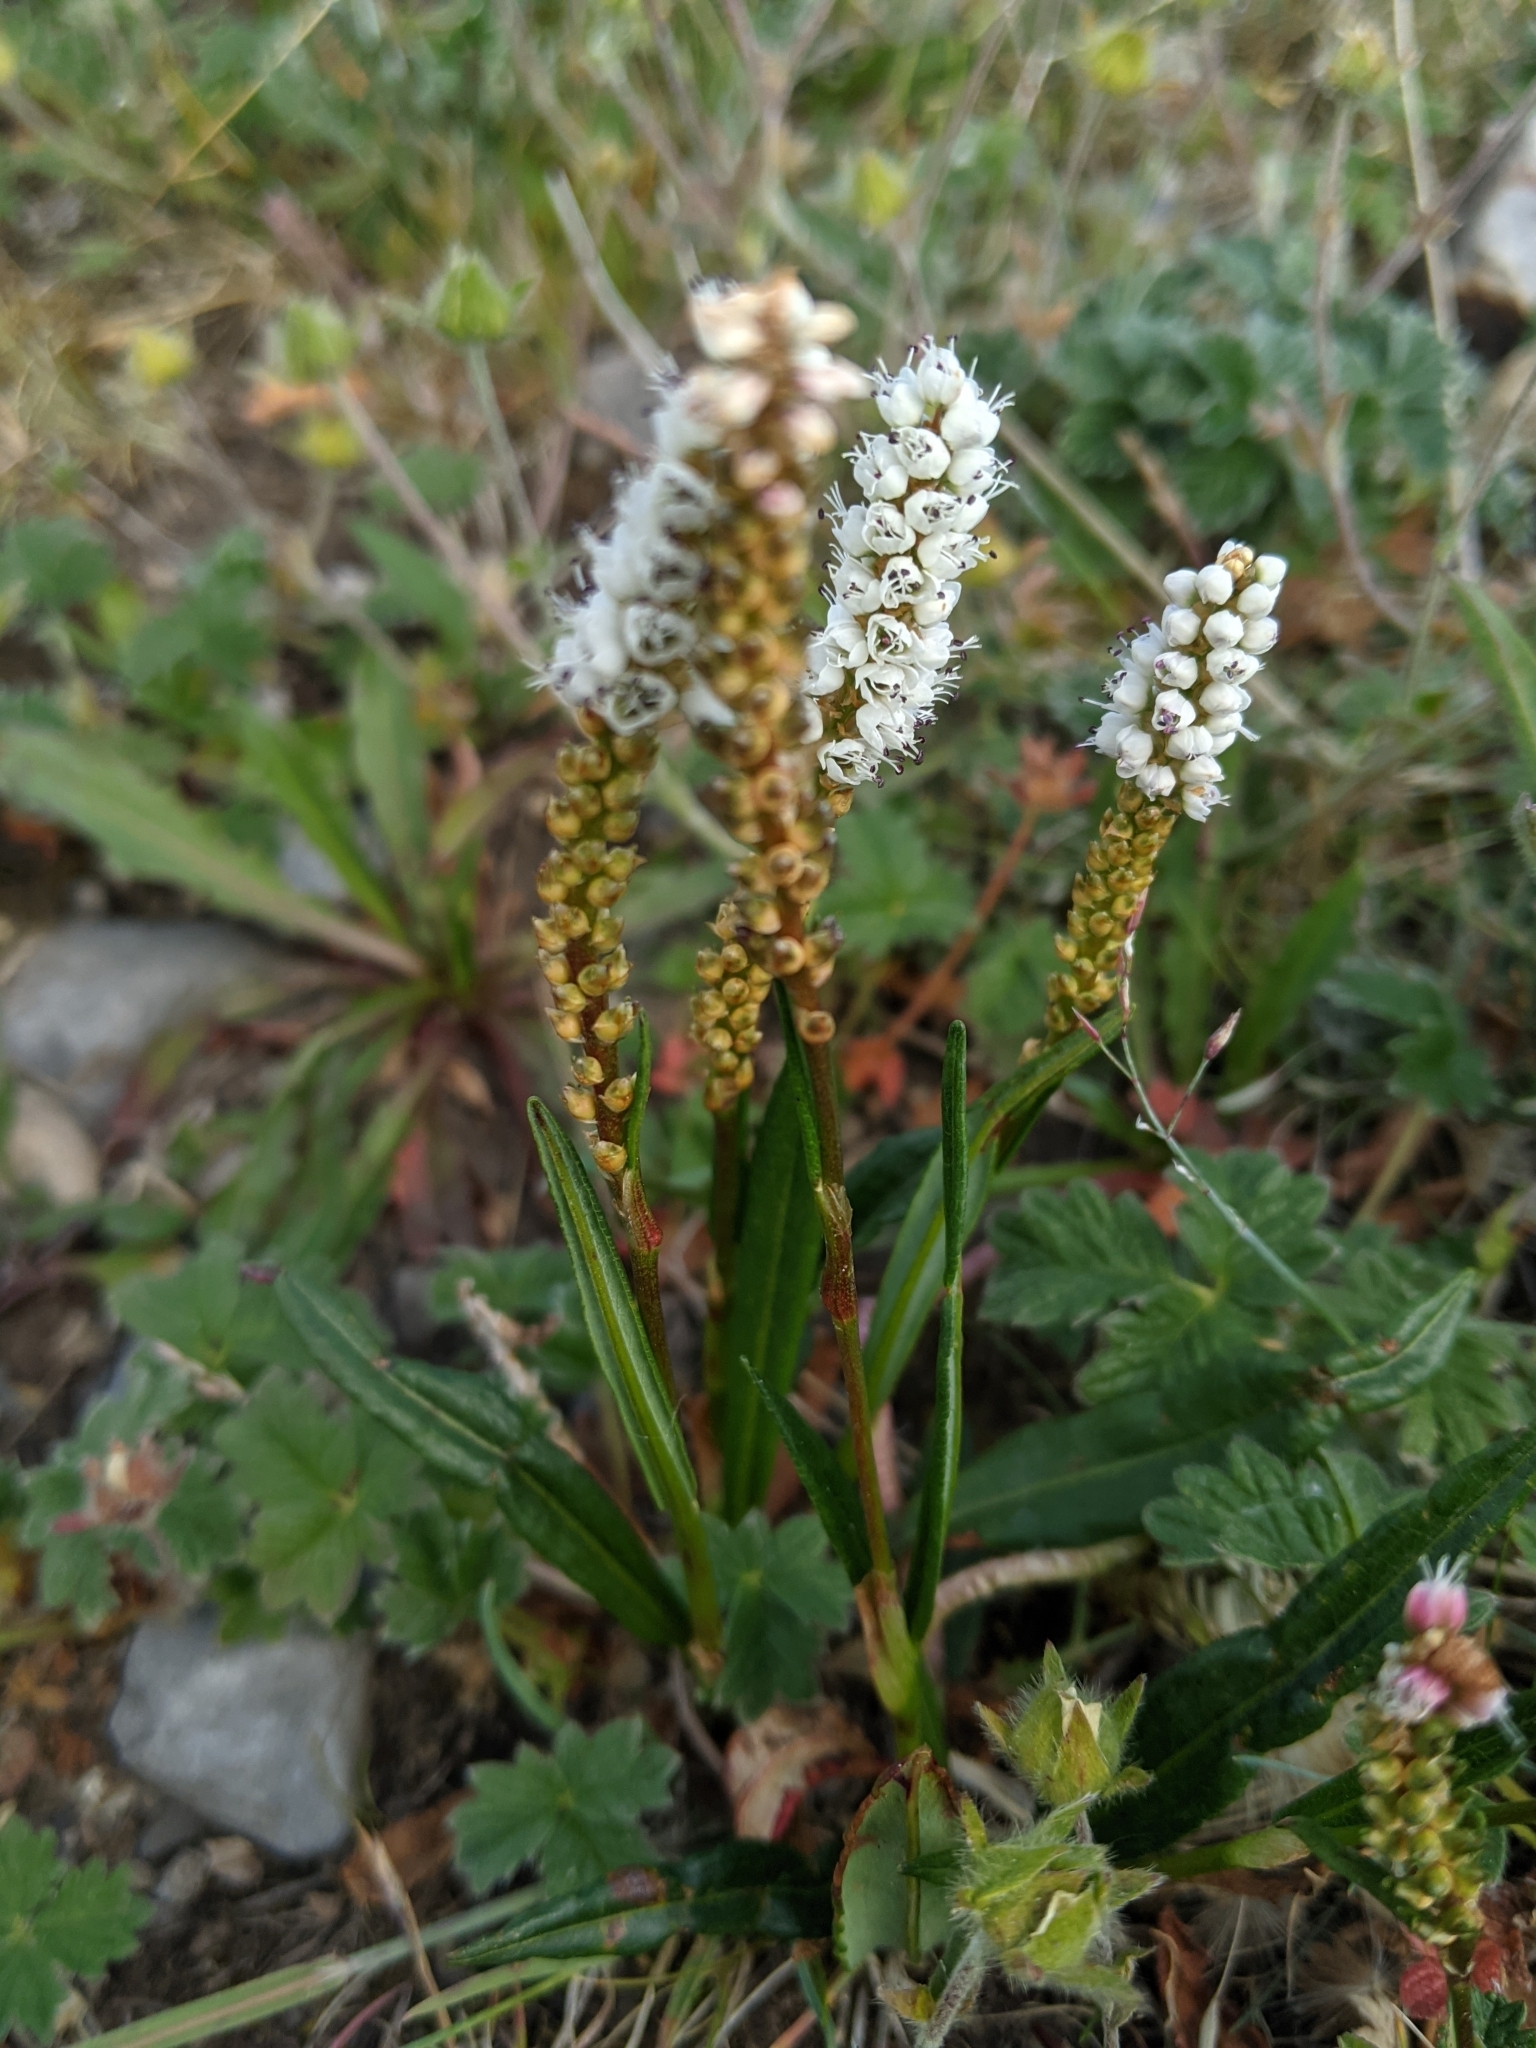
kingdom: Plantae
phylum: Tracheophyta
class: Magnoliopsida
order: Caryophyllales
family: Polygonaceae
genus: Bistorta
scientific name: Bistorta vivipara
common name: Alpine bistort
